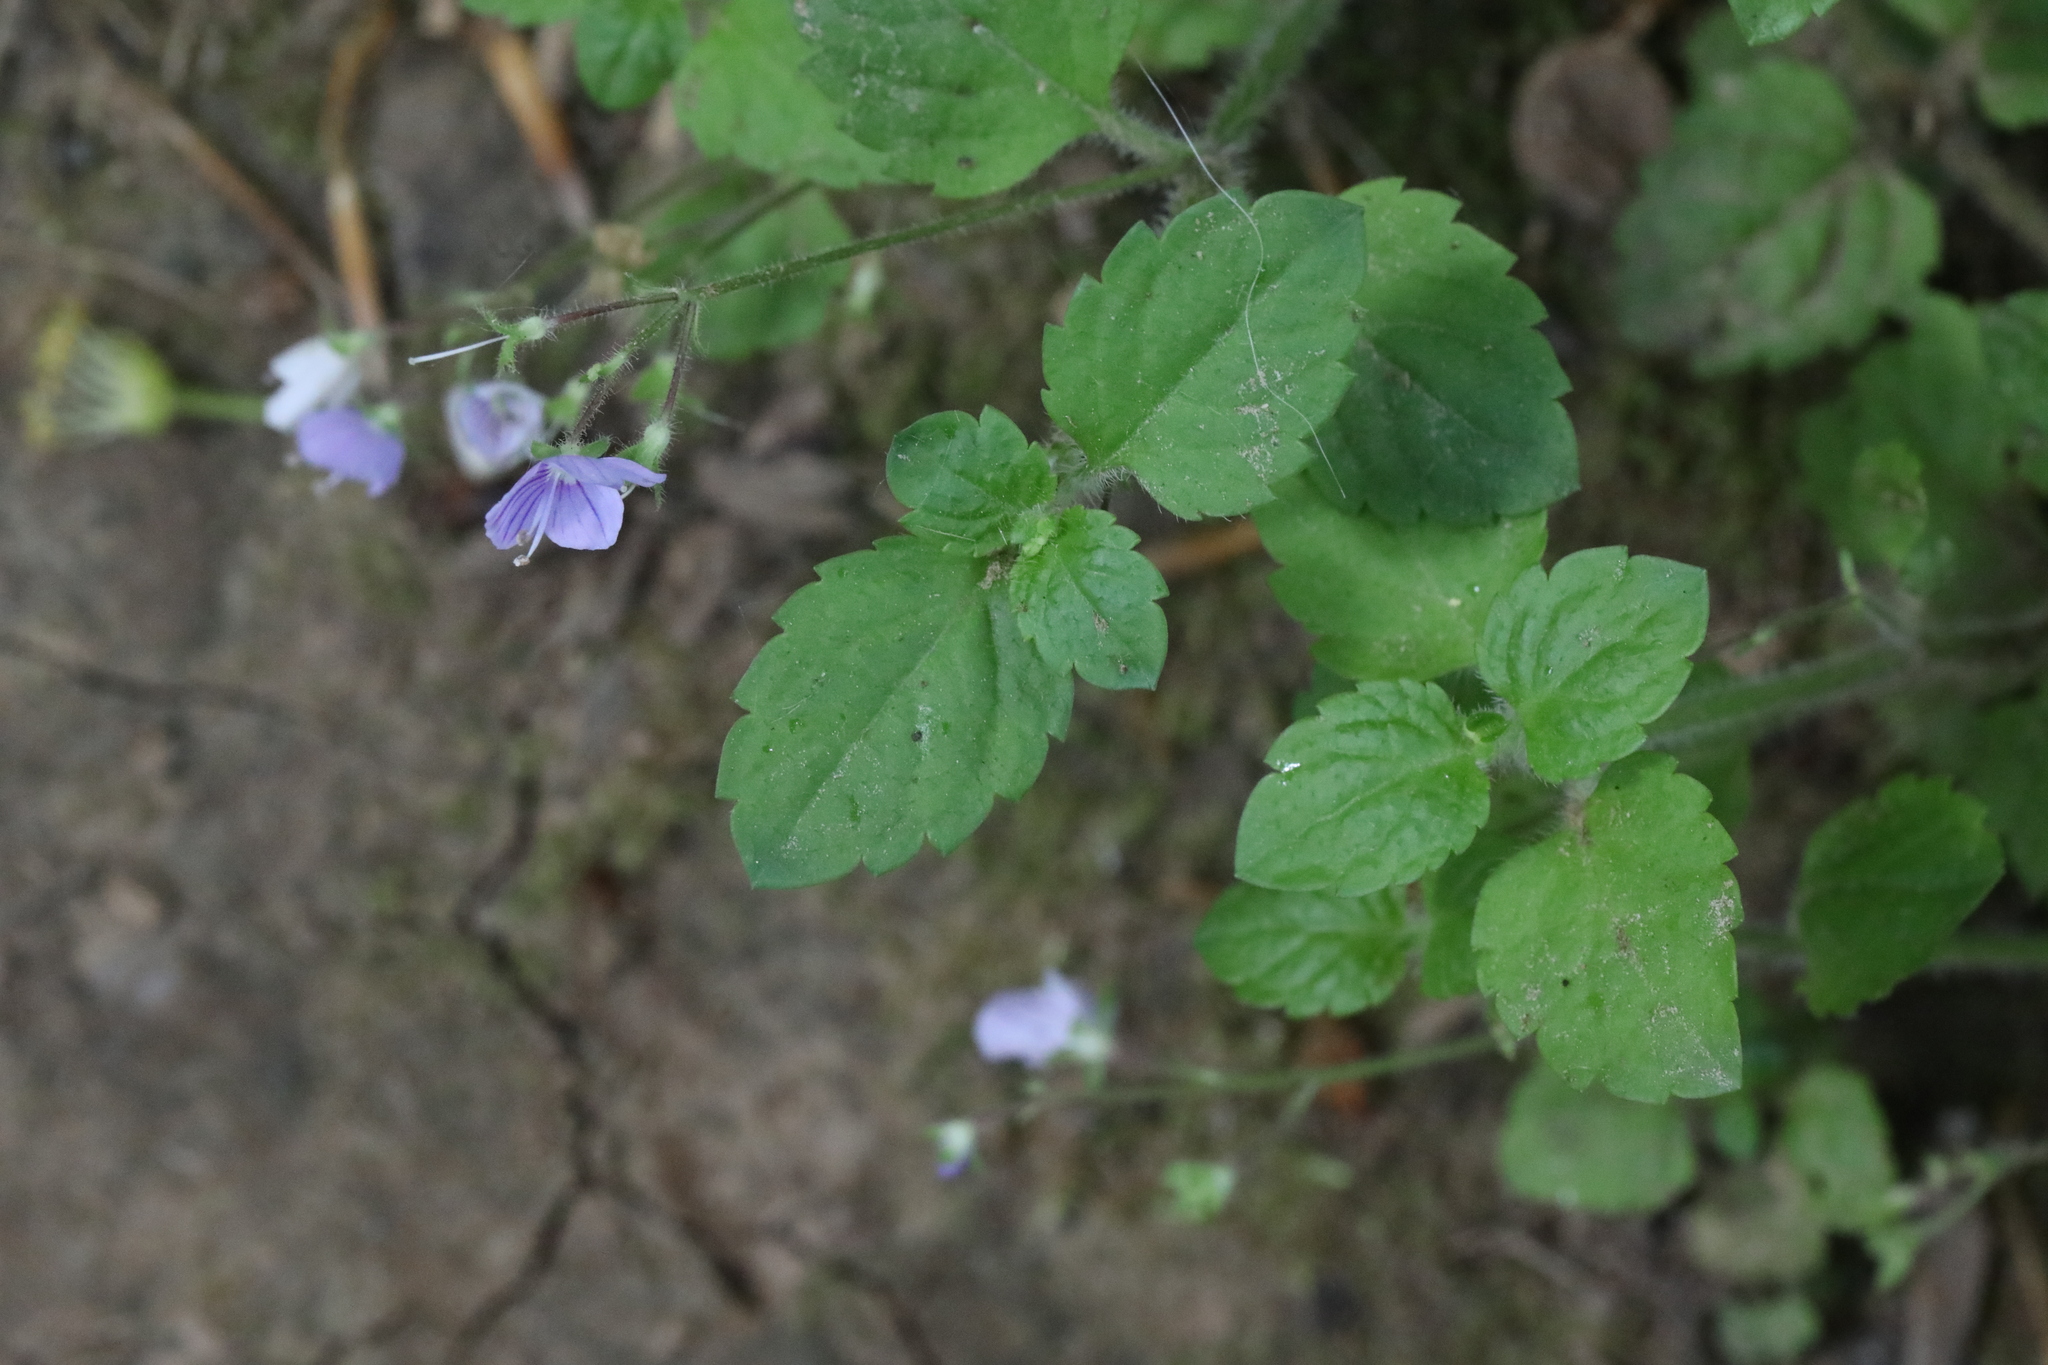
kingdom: Plantae
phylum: Tracheophyta
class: Magnoliopsida
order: Lamiales
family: Plantaginaceae
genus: Veronica
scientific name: Veronica montana
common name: Wood speedwell
